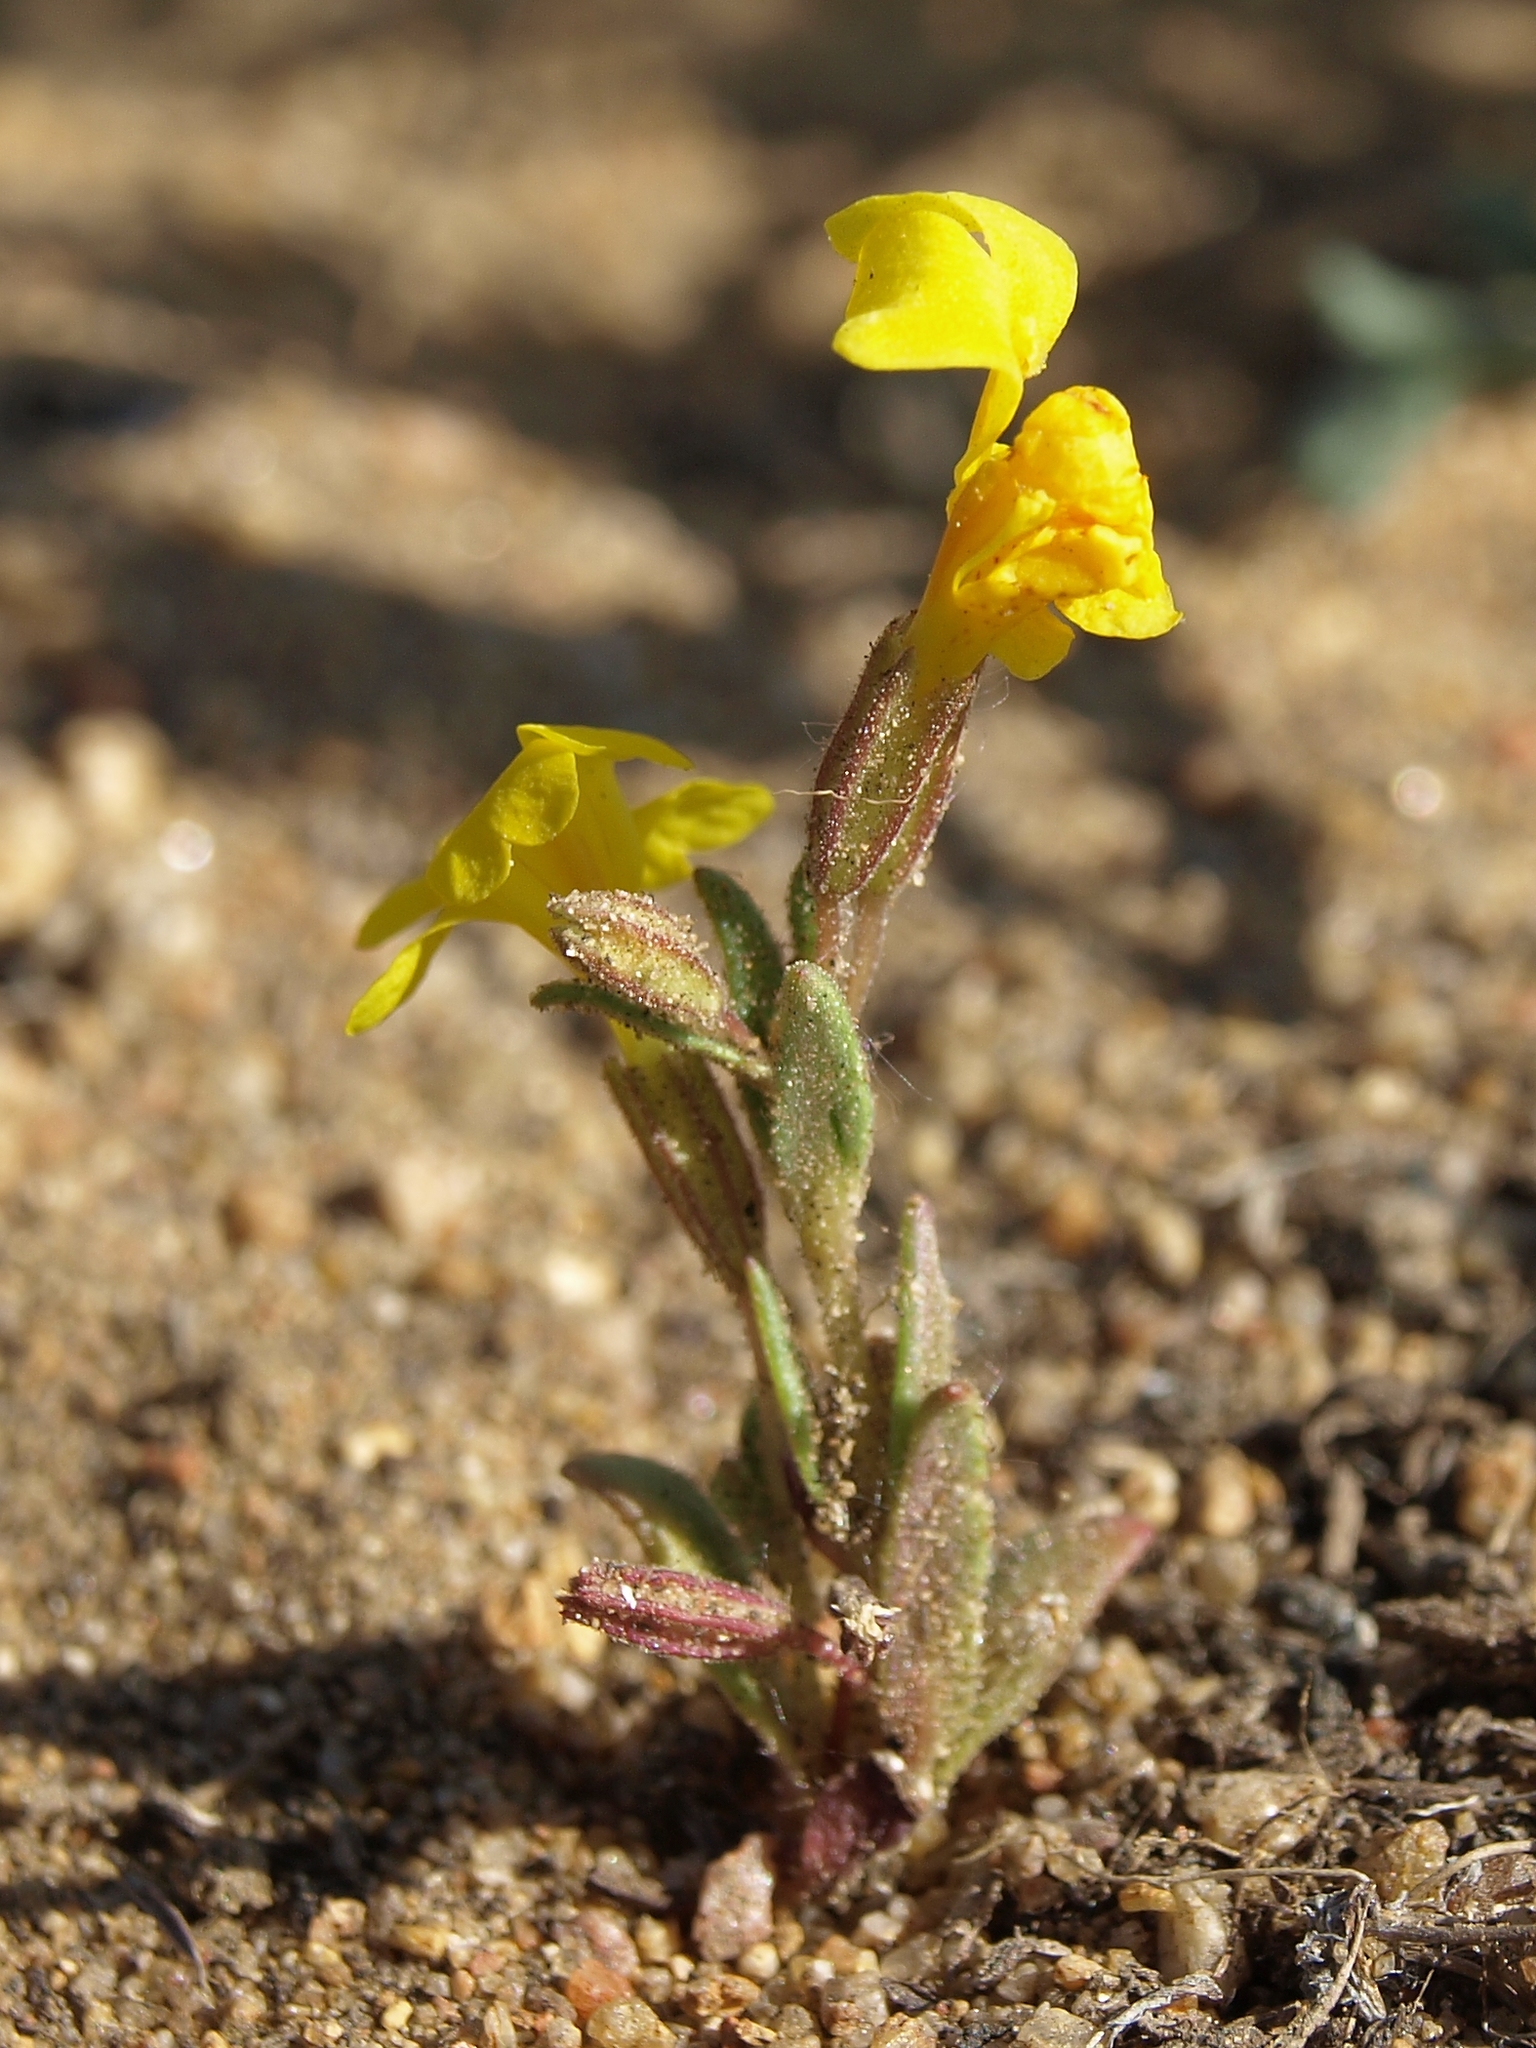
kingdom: Plantae
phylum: Tracheophyta
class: Magnoliopsida
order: Lamiales
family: Phrymaceae
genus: Erythranthe
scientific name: Erythranthe carsonensis
